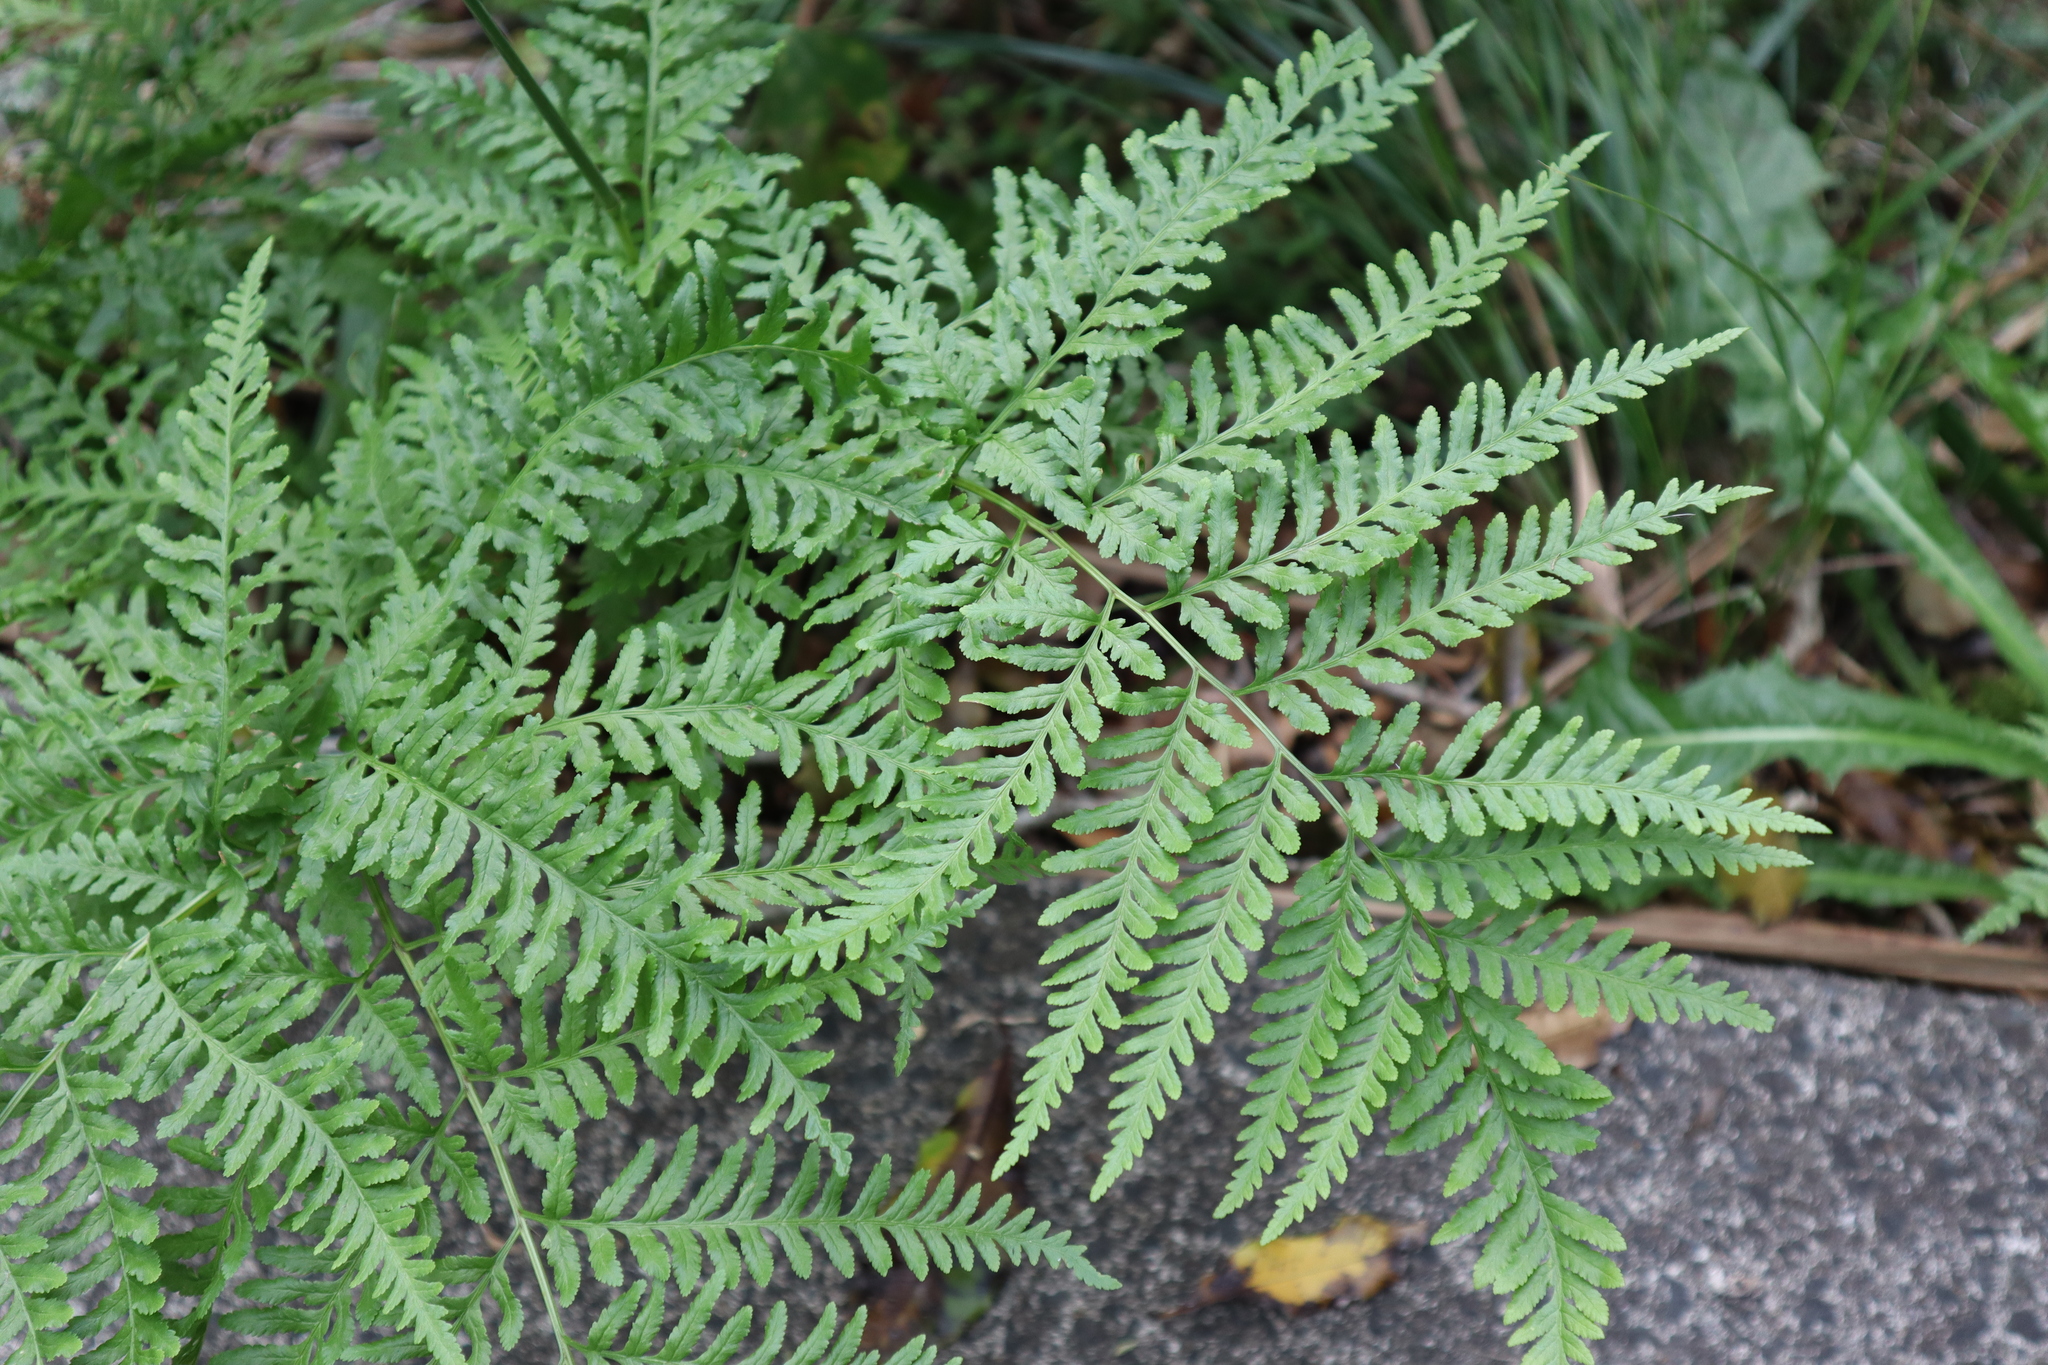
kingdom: Plantae
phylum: Tracheophyta
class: Polypodiopsida
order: Polypodiales
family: Pteridaceae
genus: Pteris
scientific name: Pteris tremula
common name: Australian brake
